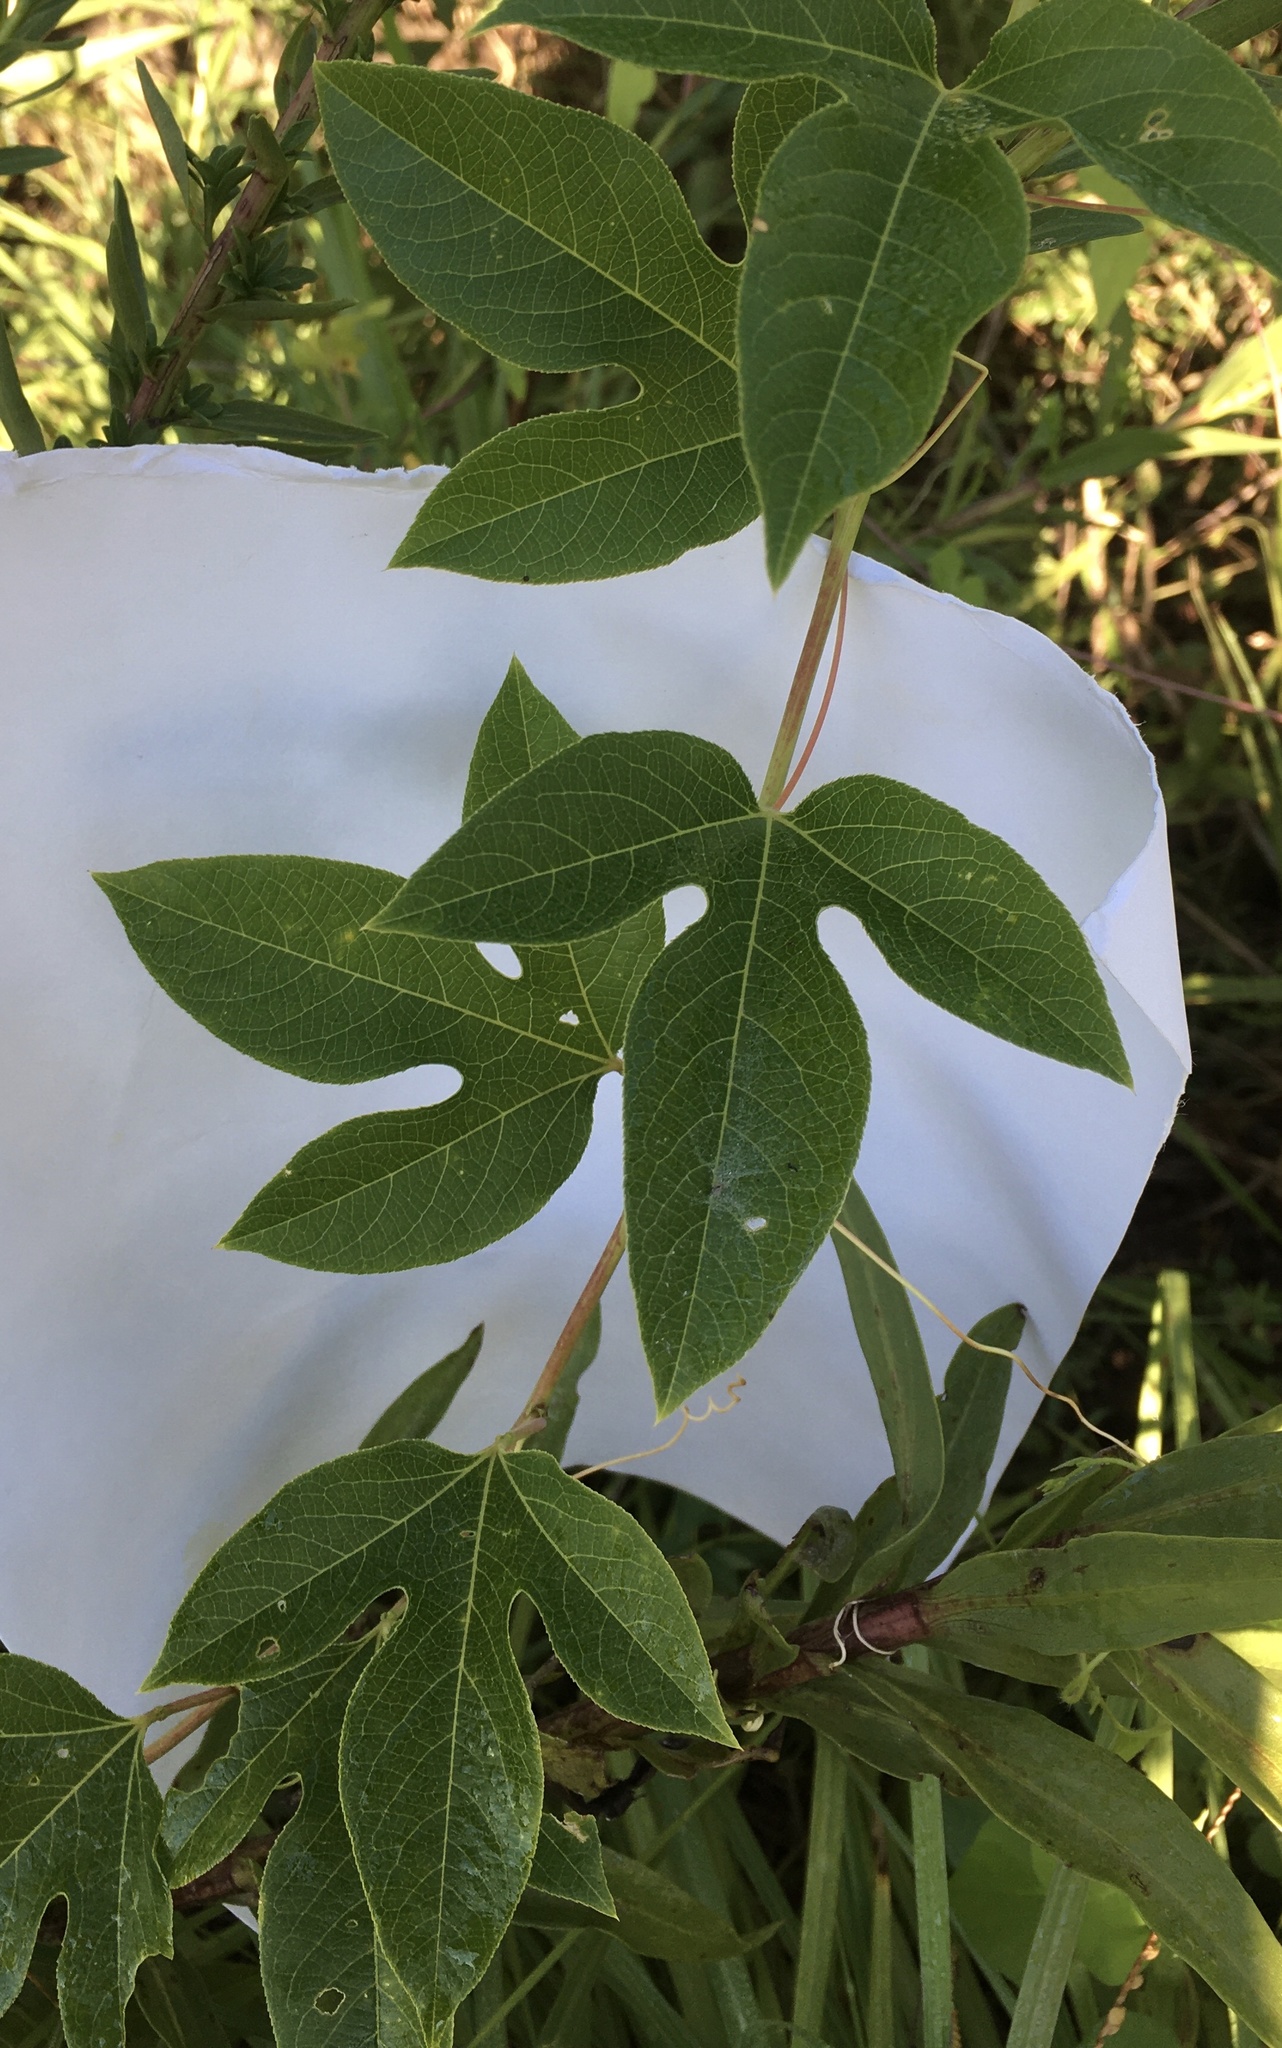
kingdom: Plantae
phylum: Tracheophyta
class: Magnoliopsida
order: Malpighiales
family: Passifloraceae
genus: Passiflora
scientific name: Passiflora incarnata
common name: Apricot-vine
